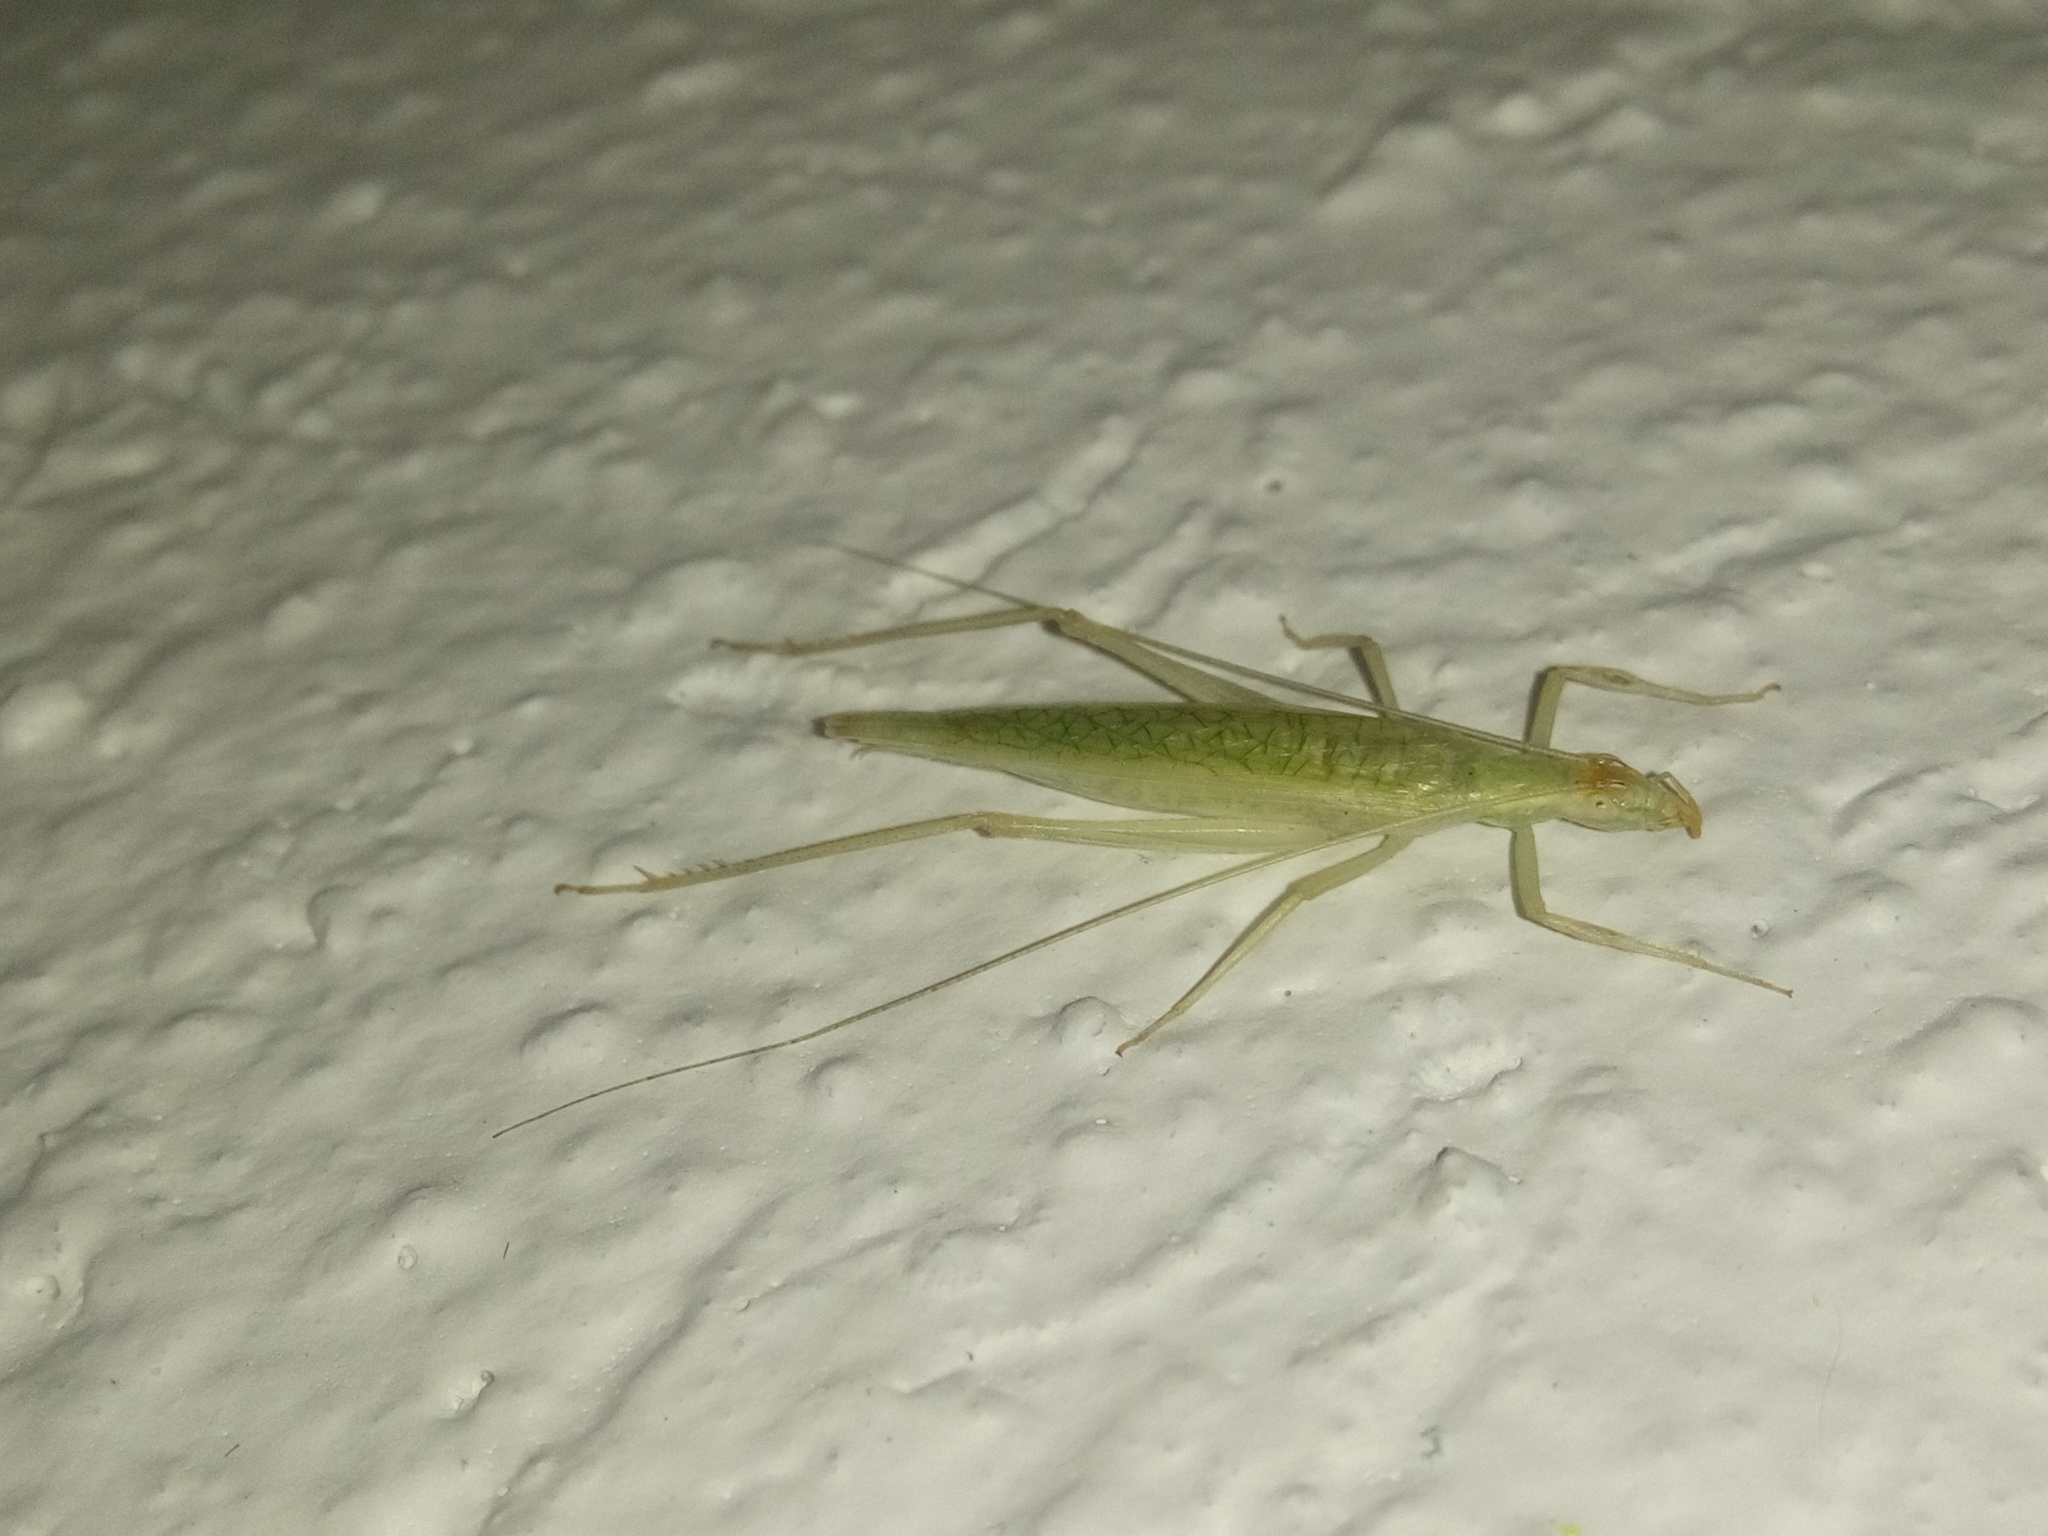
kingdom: Animalia
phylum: Arthropoda
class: Insecta
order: Orthoptera
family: Gryllidae
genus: Oecanthus
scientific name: Oecanthus leptogrammus
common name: Thin-lined tree cricket
